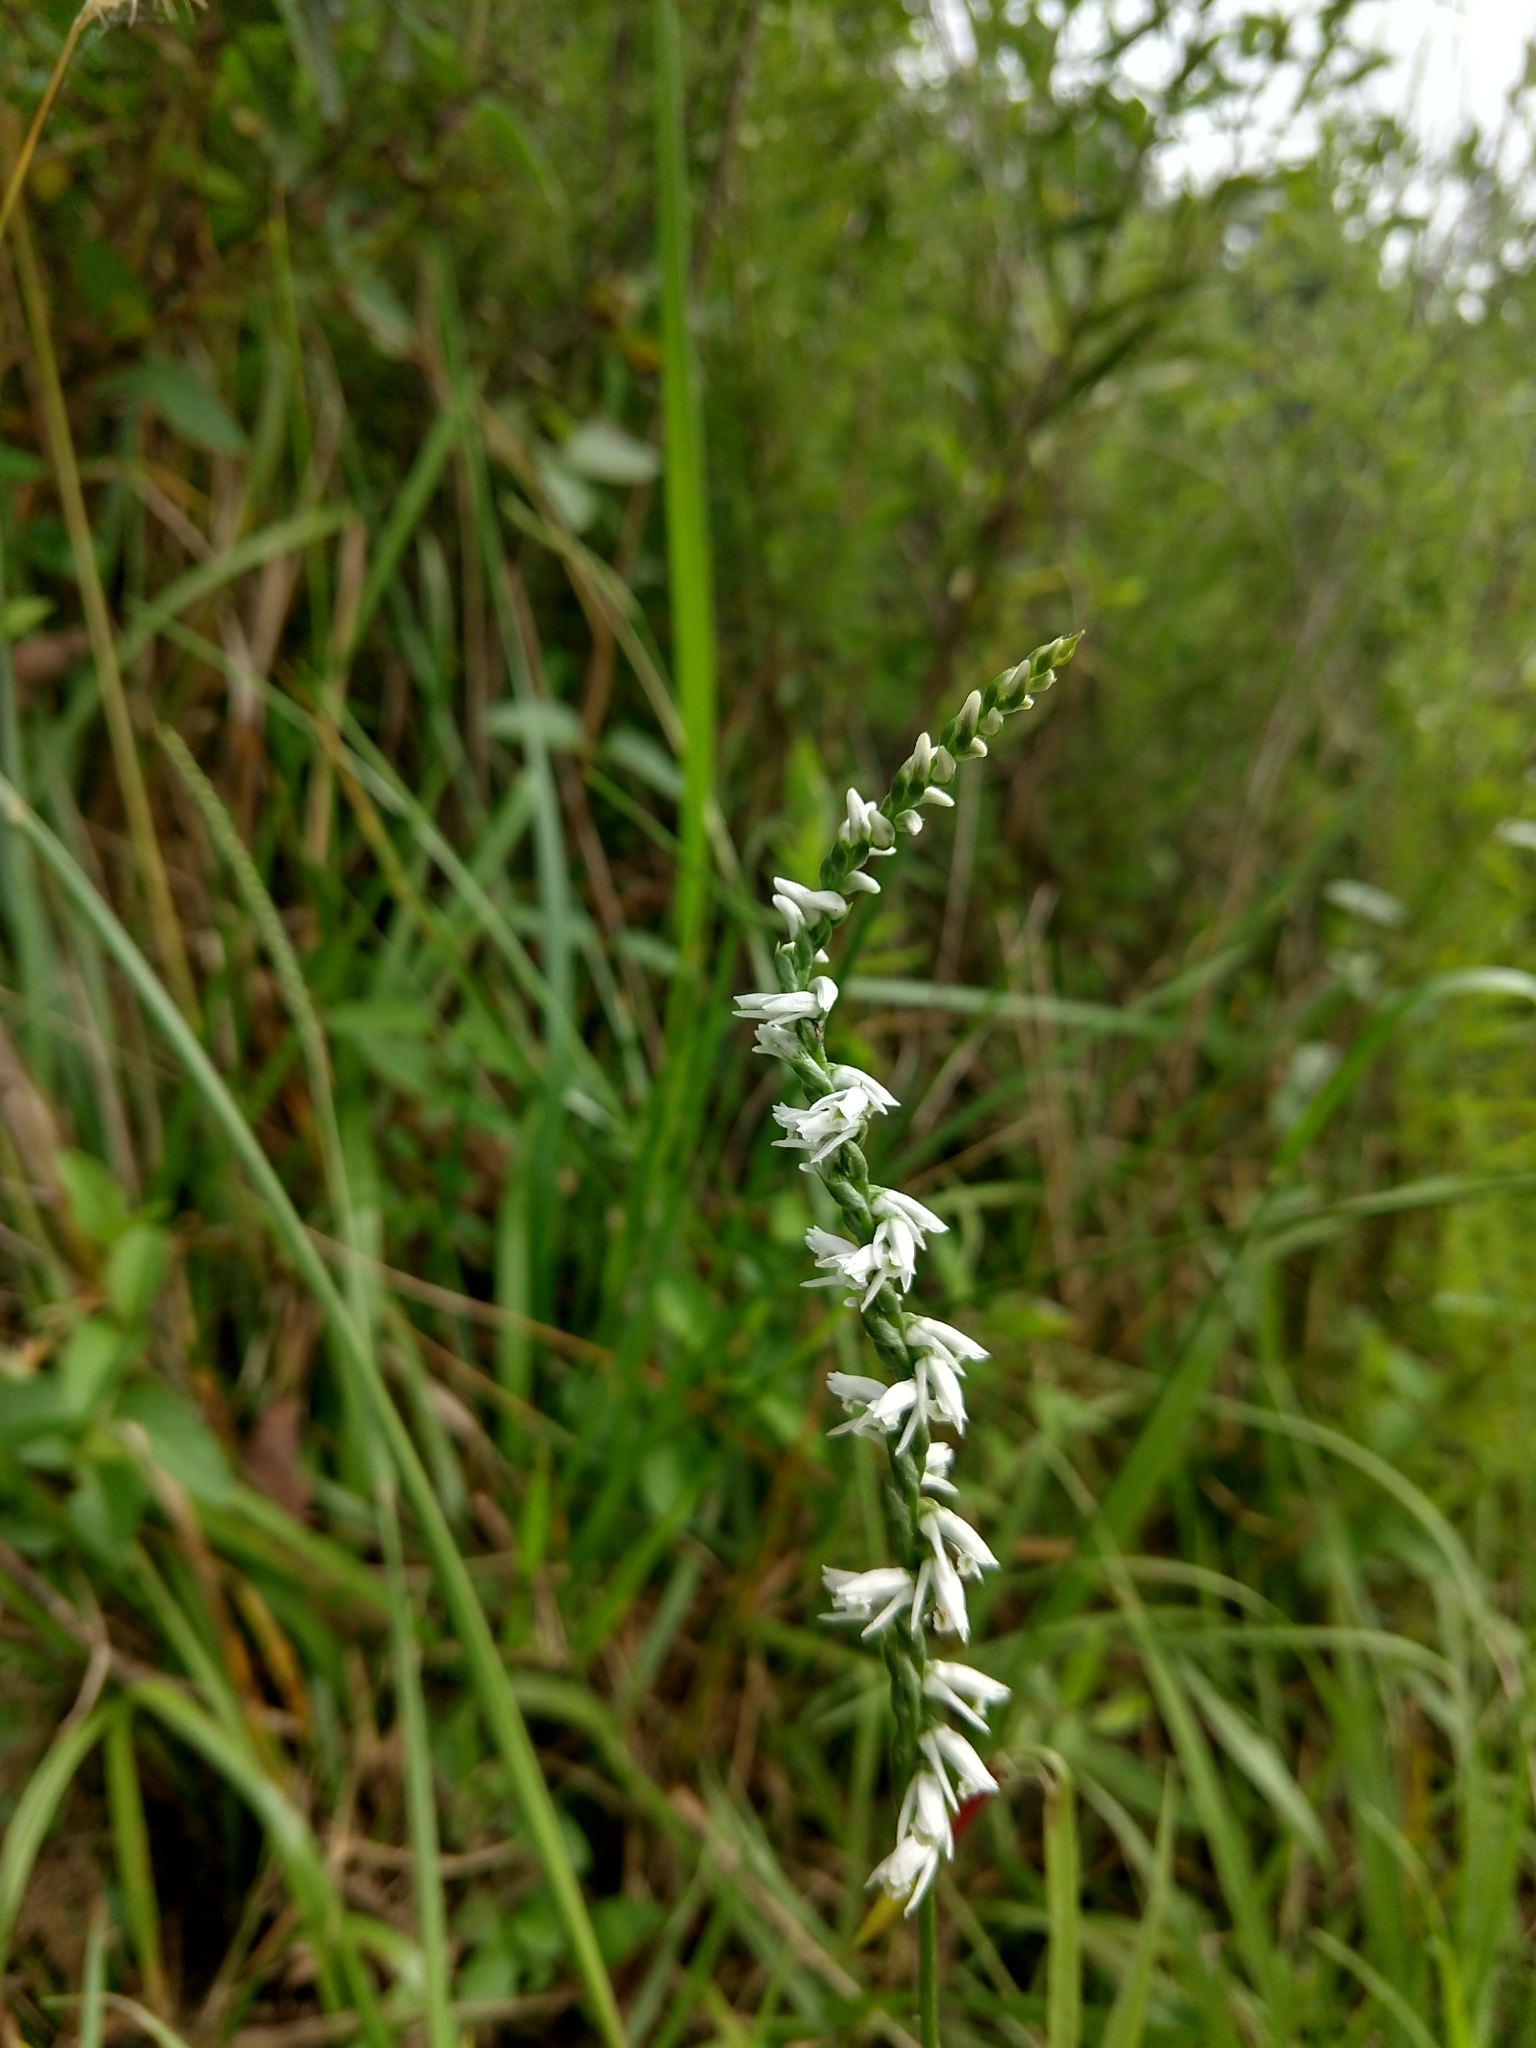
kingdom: Plantae
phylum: Tracheophyta
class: Liliopsida
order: Asparagales
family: Orchidaceae
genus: Spiranthes
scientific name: Spiranthes lacera
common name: Northern slender ladies'-tresses
